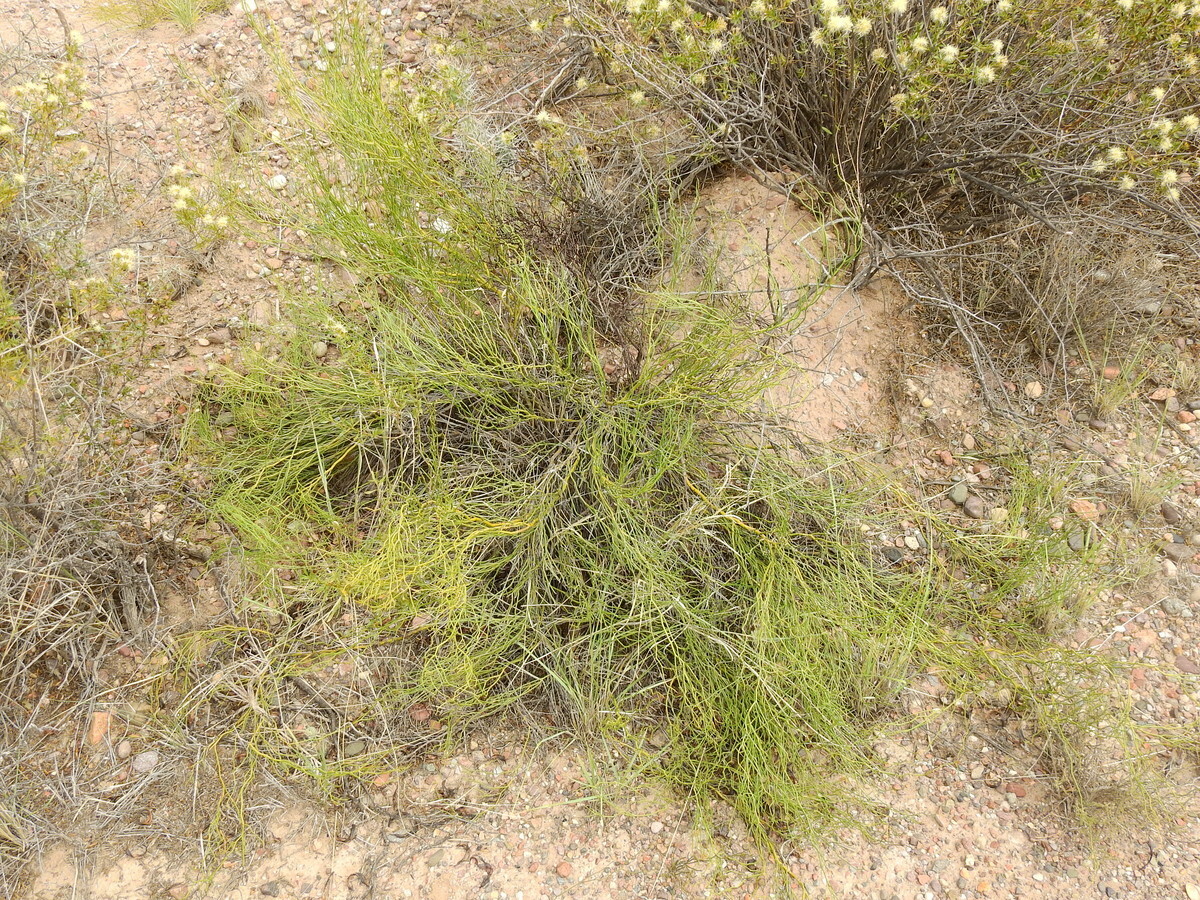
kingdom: Plantae
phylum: Tracheophyta
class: Magnoliopsida
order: Fabales
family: Fabaceae
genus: Senna
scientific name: Senna aphylla
